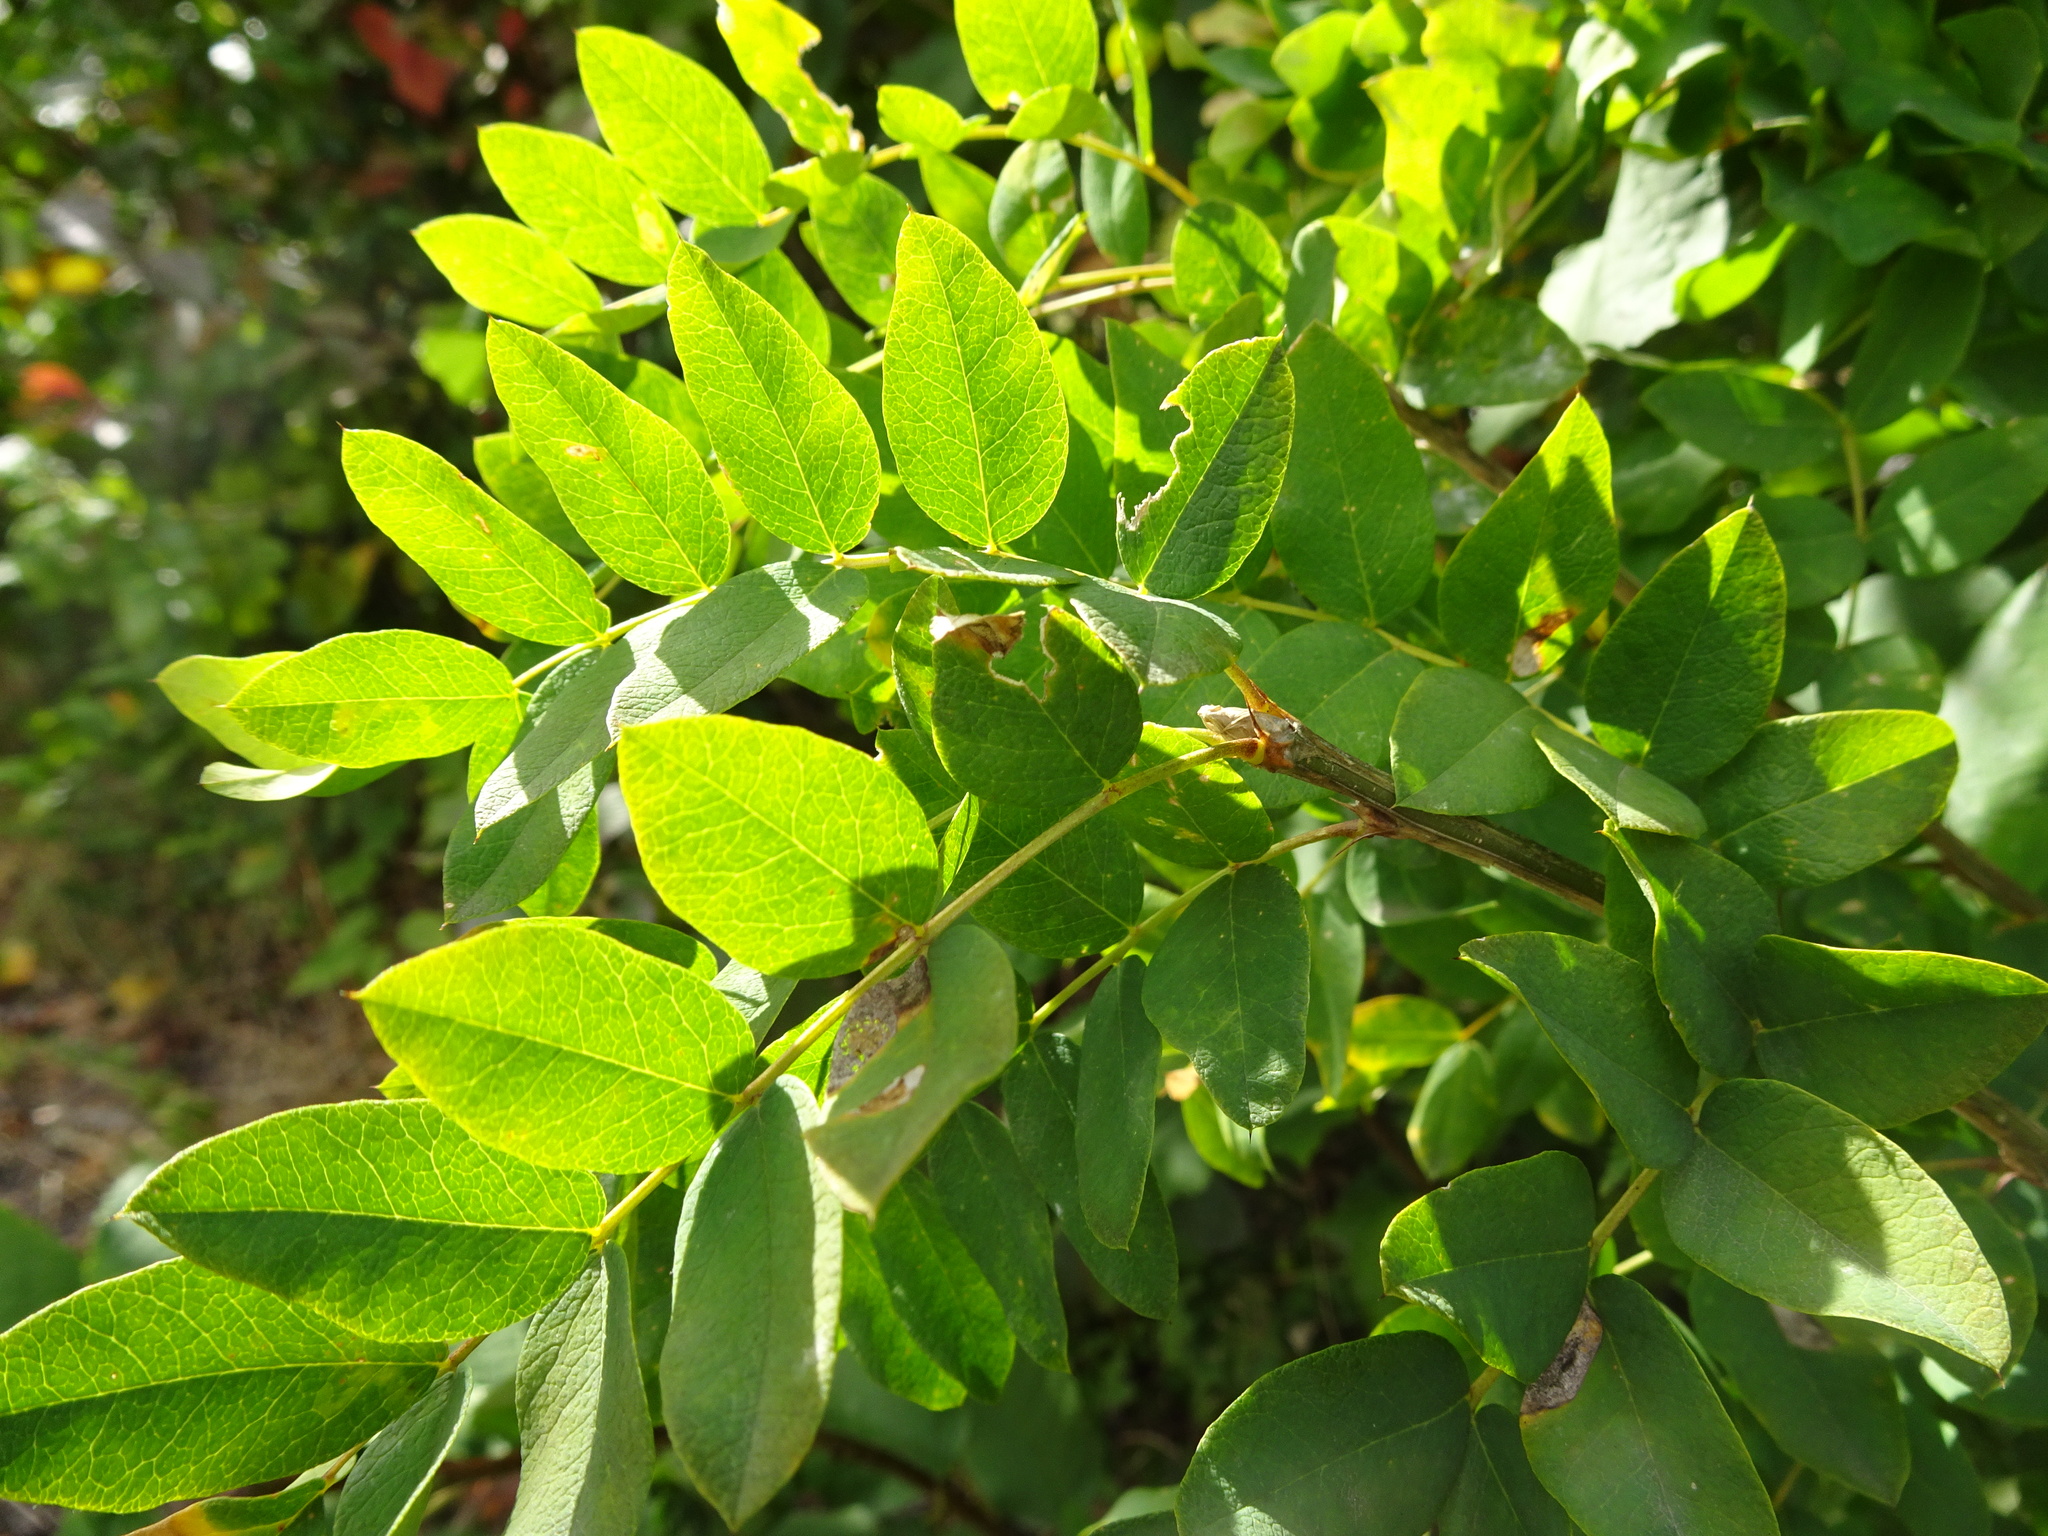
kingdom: Plantae
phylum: Tracheophyta
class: Magnoliopsida
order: Fabales
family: Fabaceae
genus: Robinia
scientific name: Robinia pseudoacacia
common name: Black locust
